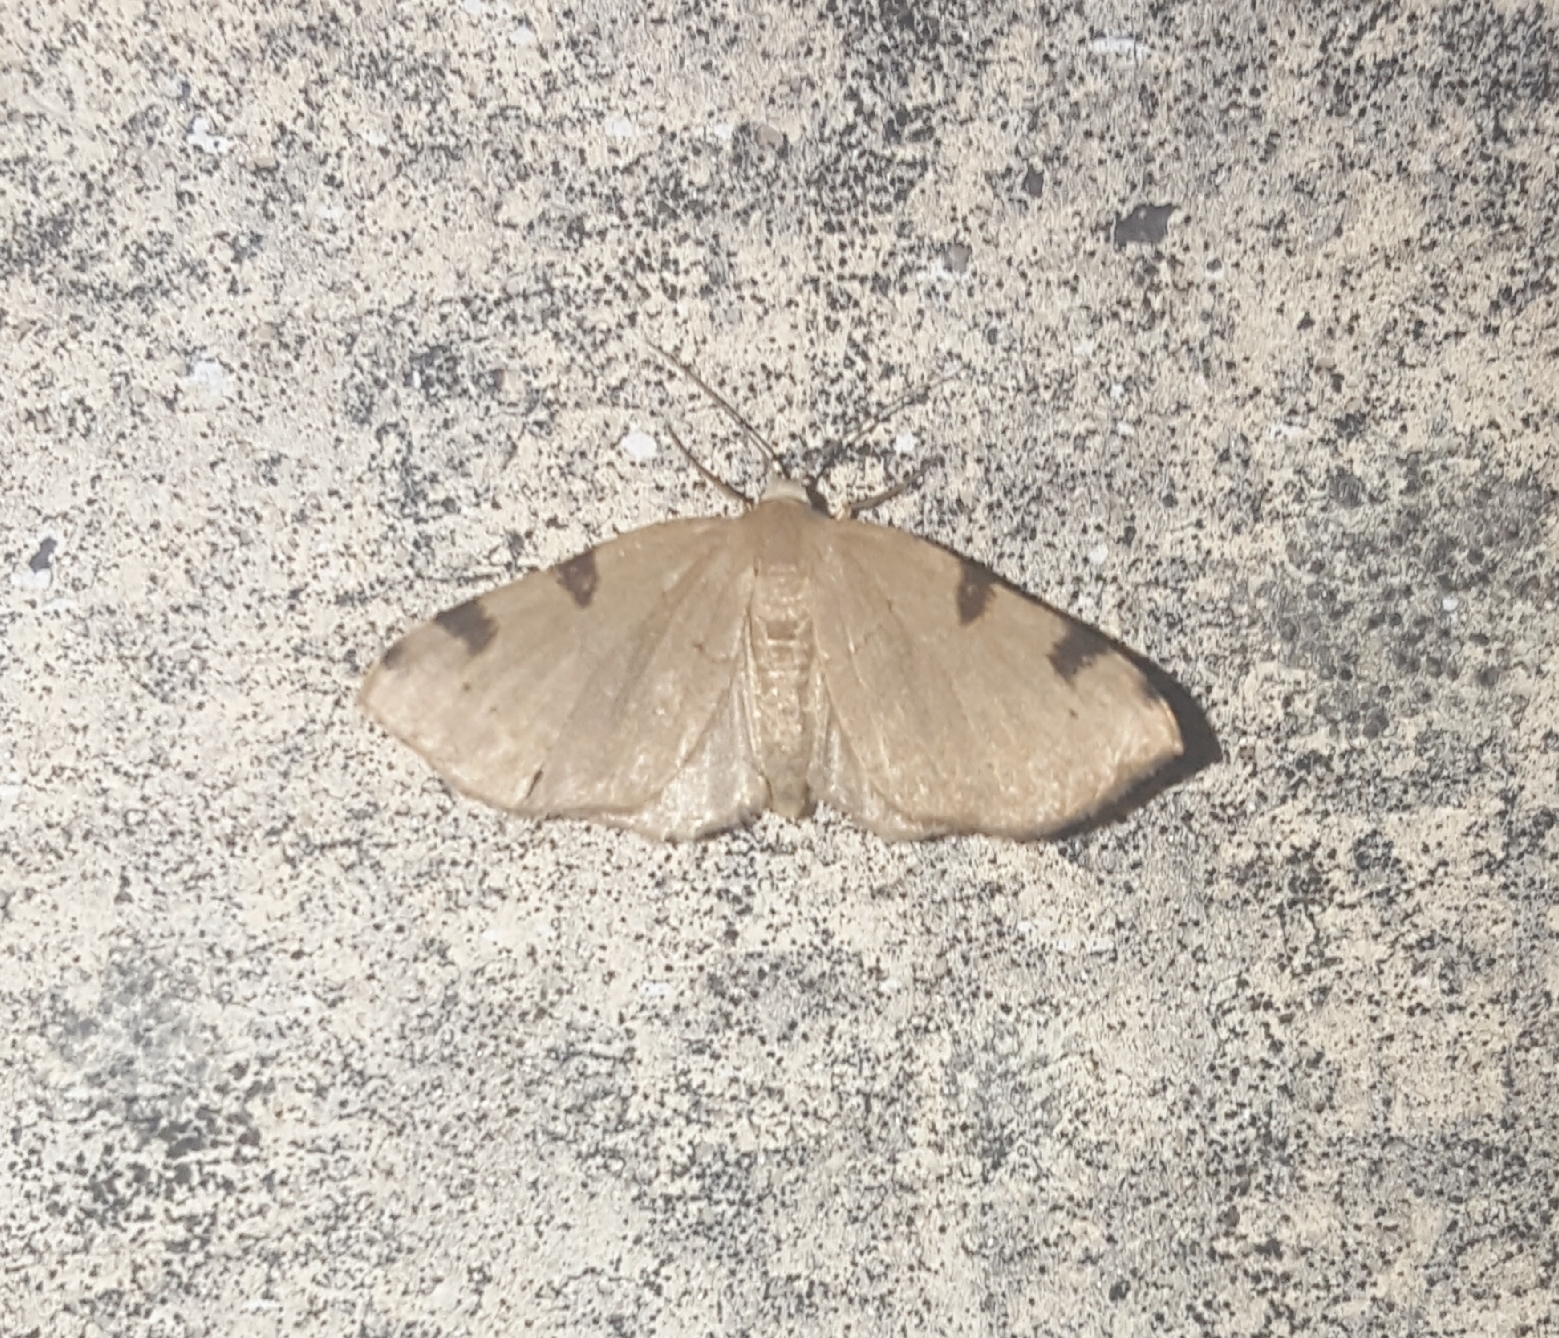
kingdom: Animalia
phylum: Arthropoda
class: Insecta
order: Lepidoptera
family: Geometridae
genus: Heterophleps
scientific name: Heterophleps triguttaria
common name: Three-spotted fillip
